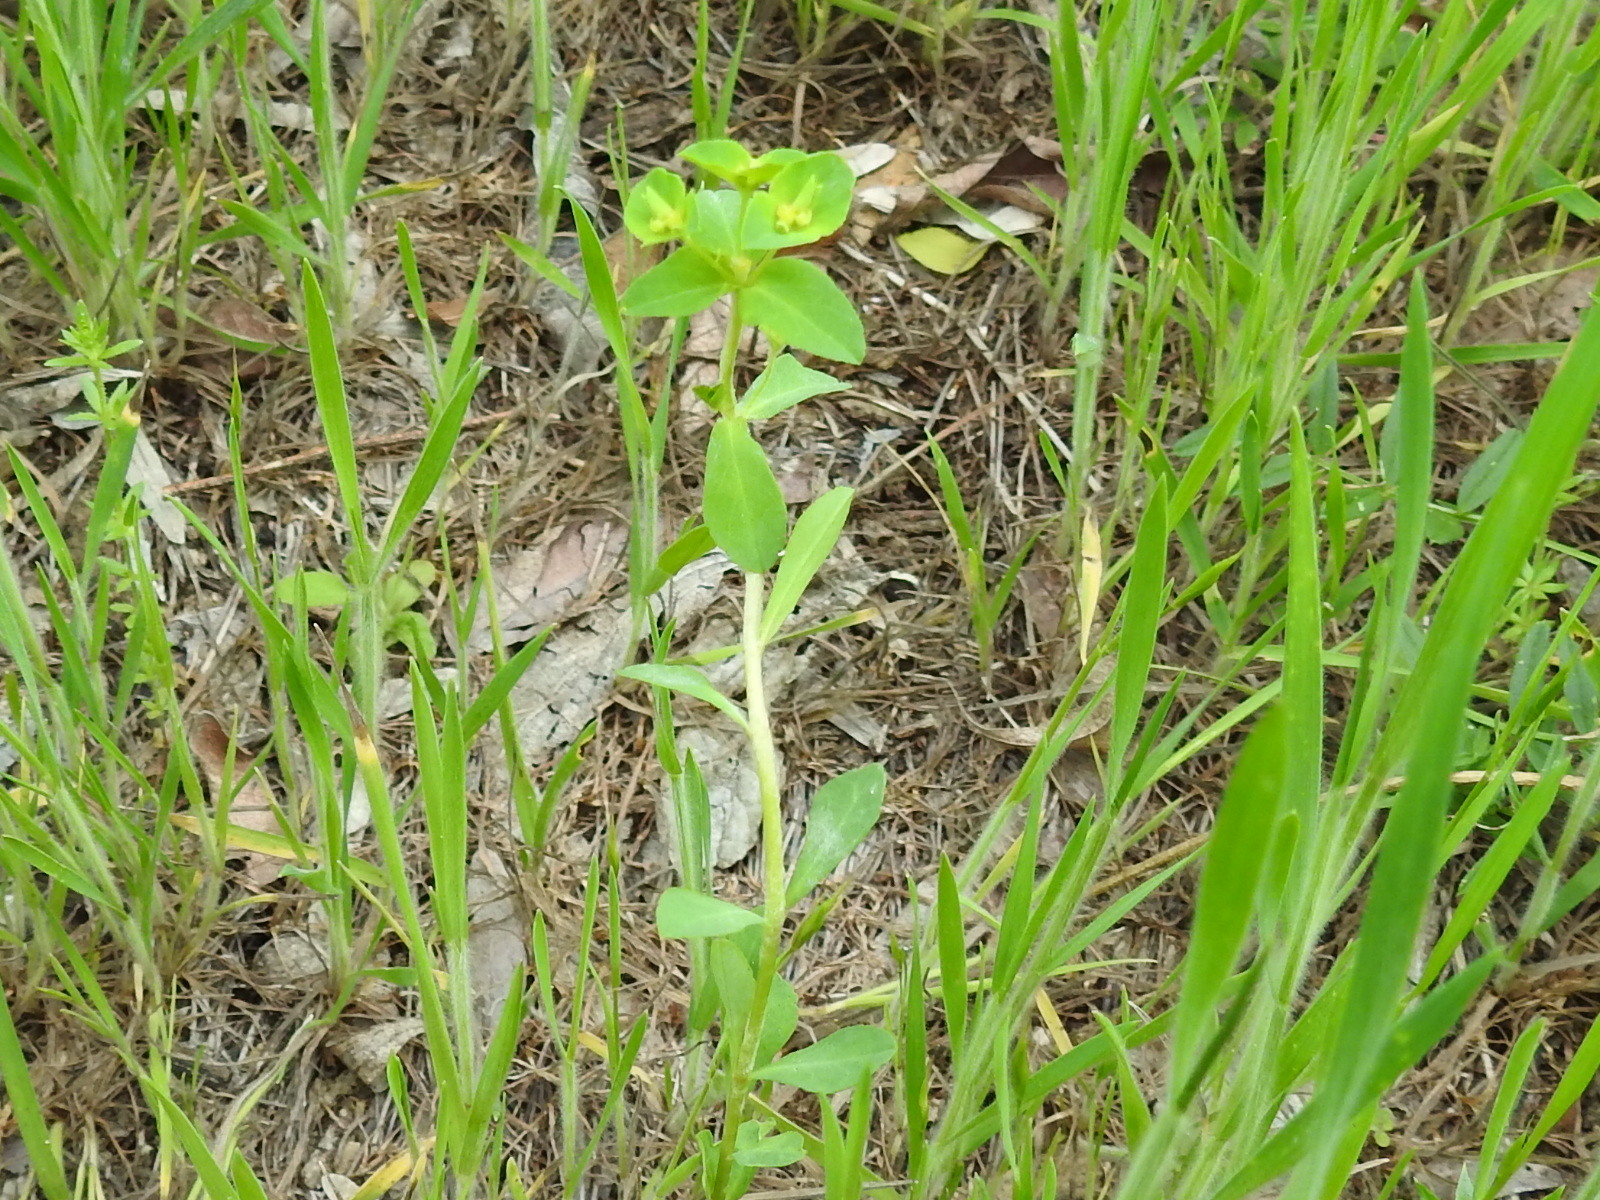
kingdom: Plantae
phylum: Tracheophyta
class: Magnoliopsida
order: Malpighiales
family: Euphorbiaceae
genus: Euphorbia
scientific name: Euphorbia spathulata
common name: Blunt spurge
